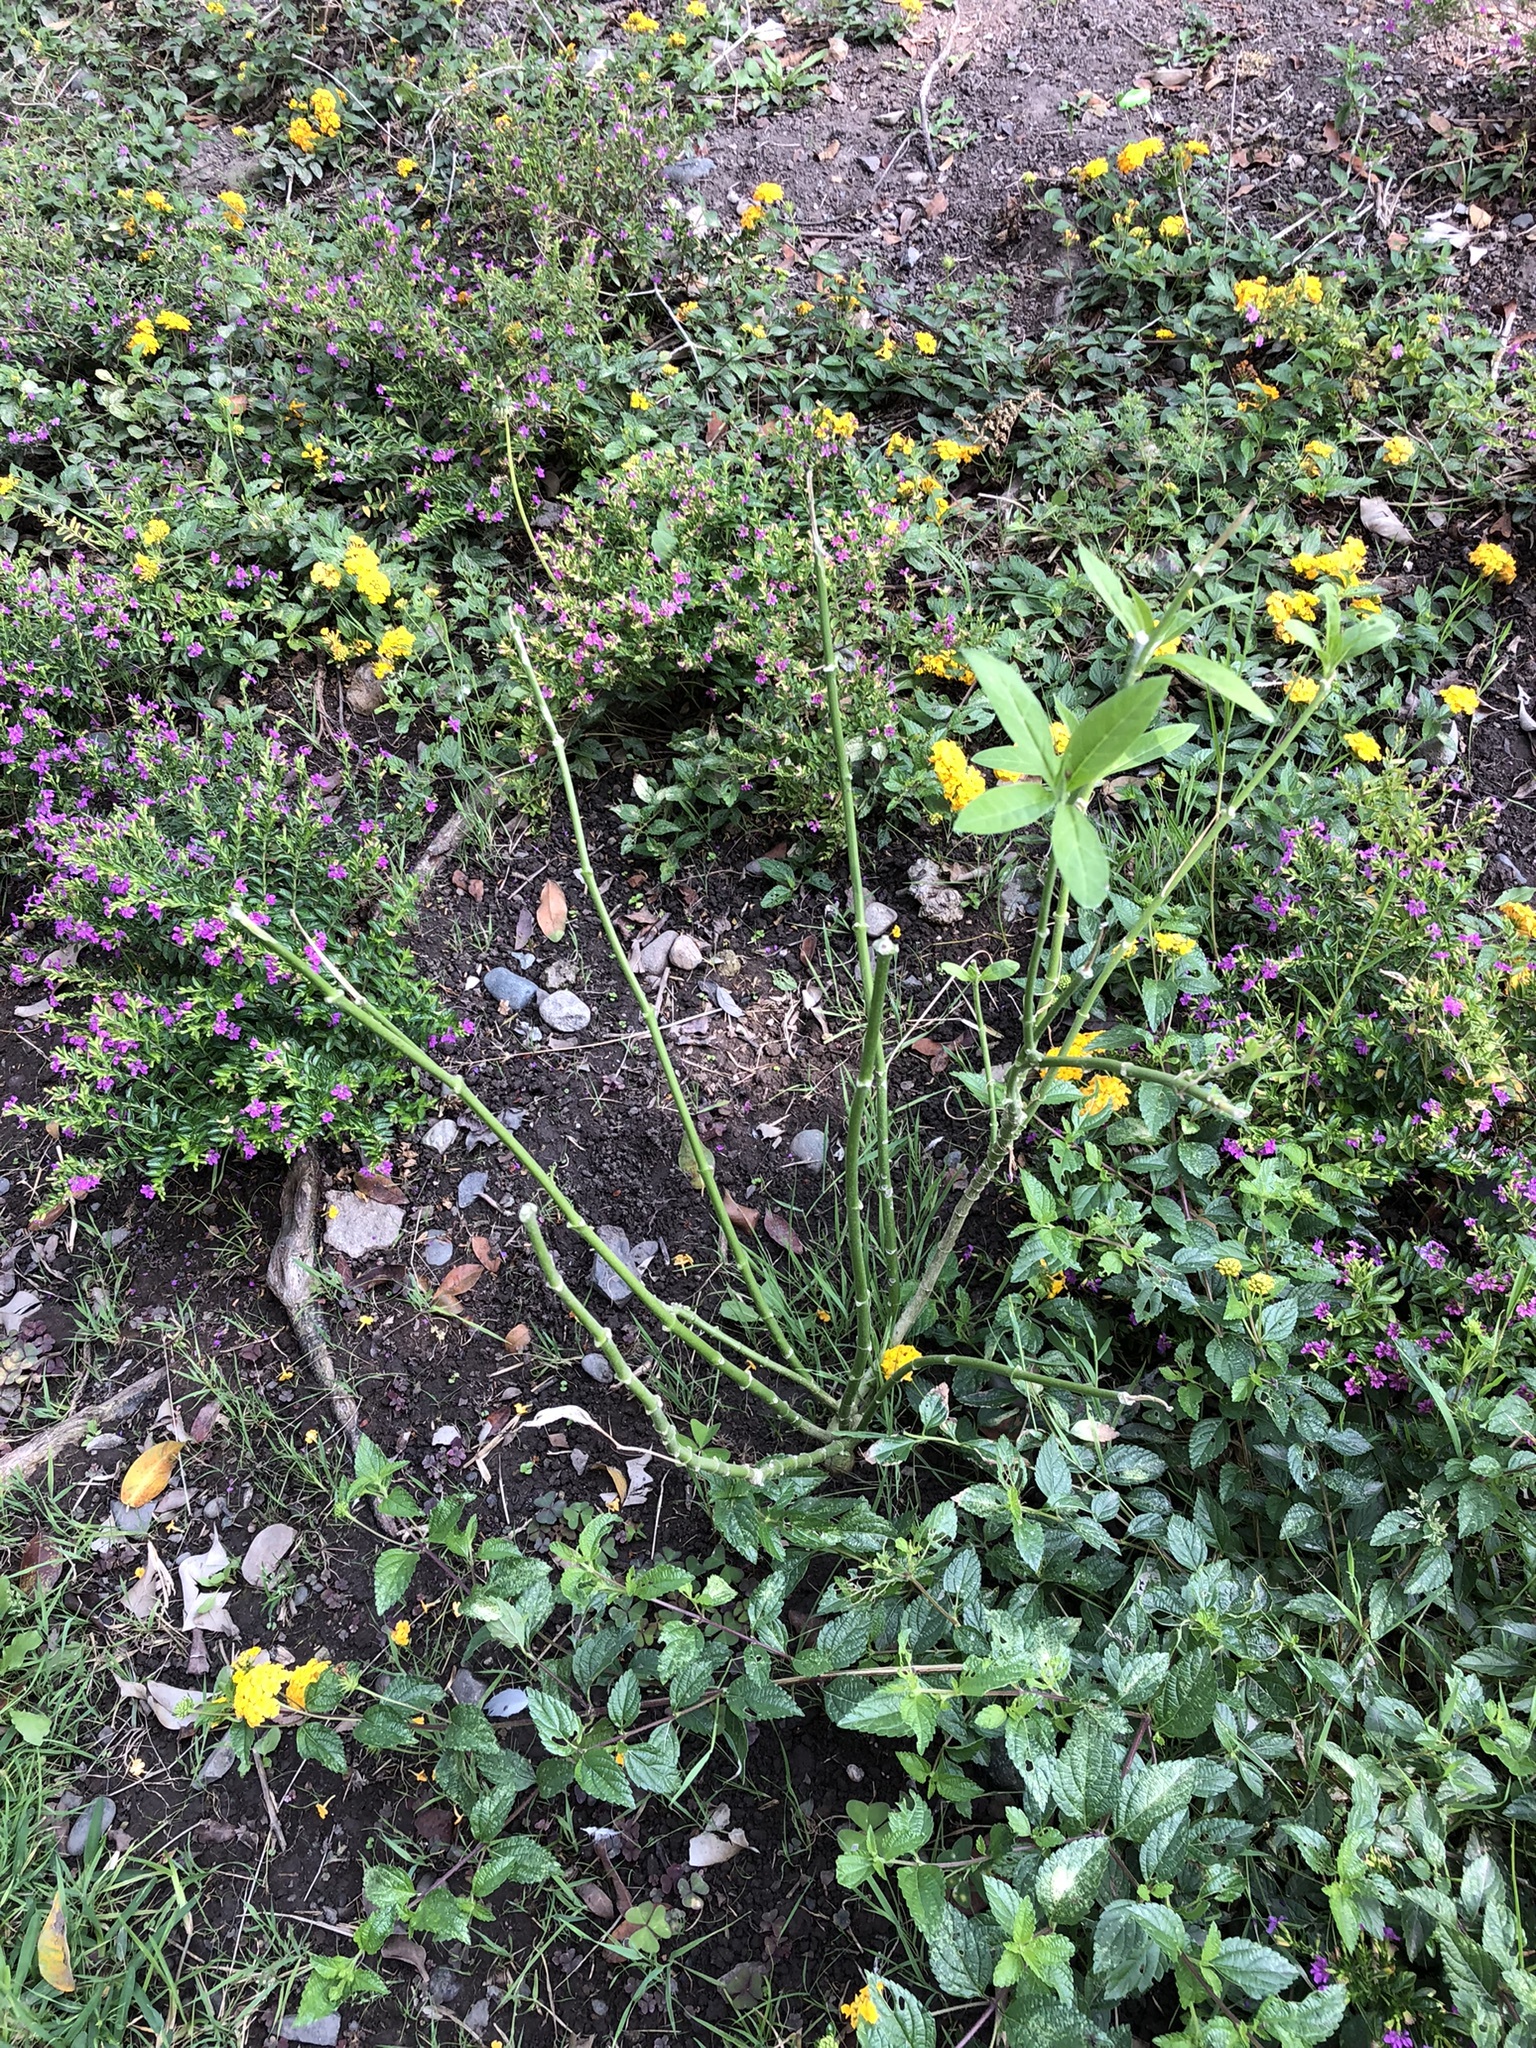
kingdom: Plantae
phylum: Tracheophyta
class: Magnoliopsida
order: Gentianales
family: Apocynaceae
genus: Asclepias
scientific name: Asclepias curassavica
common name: Bloodflower
